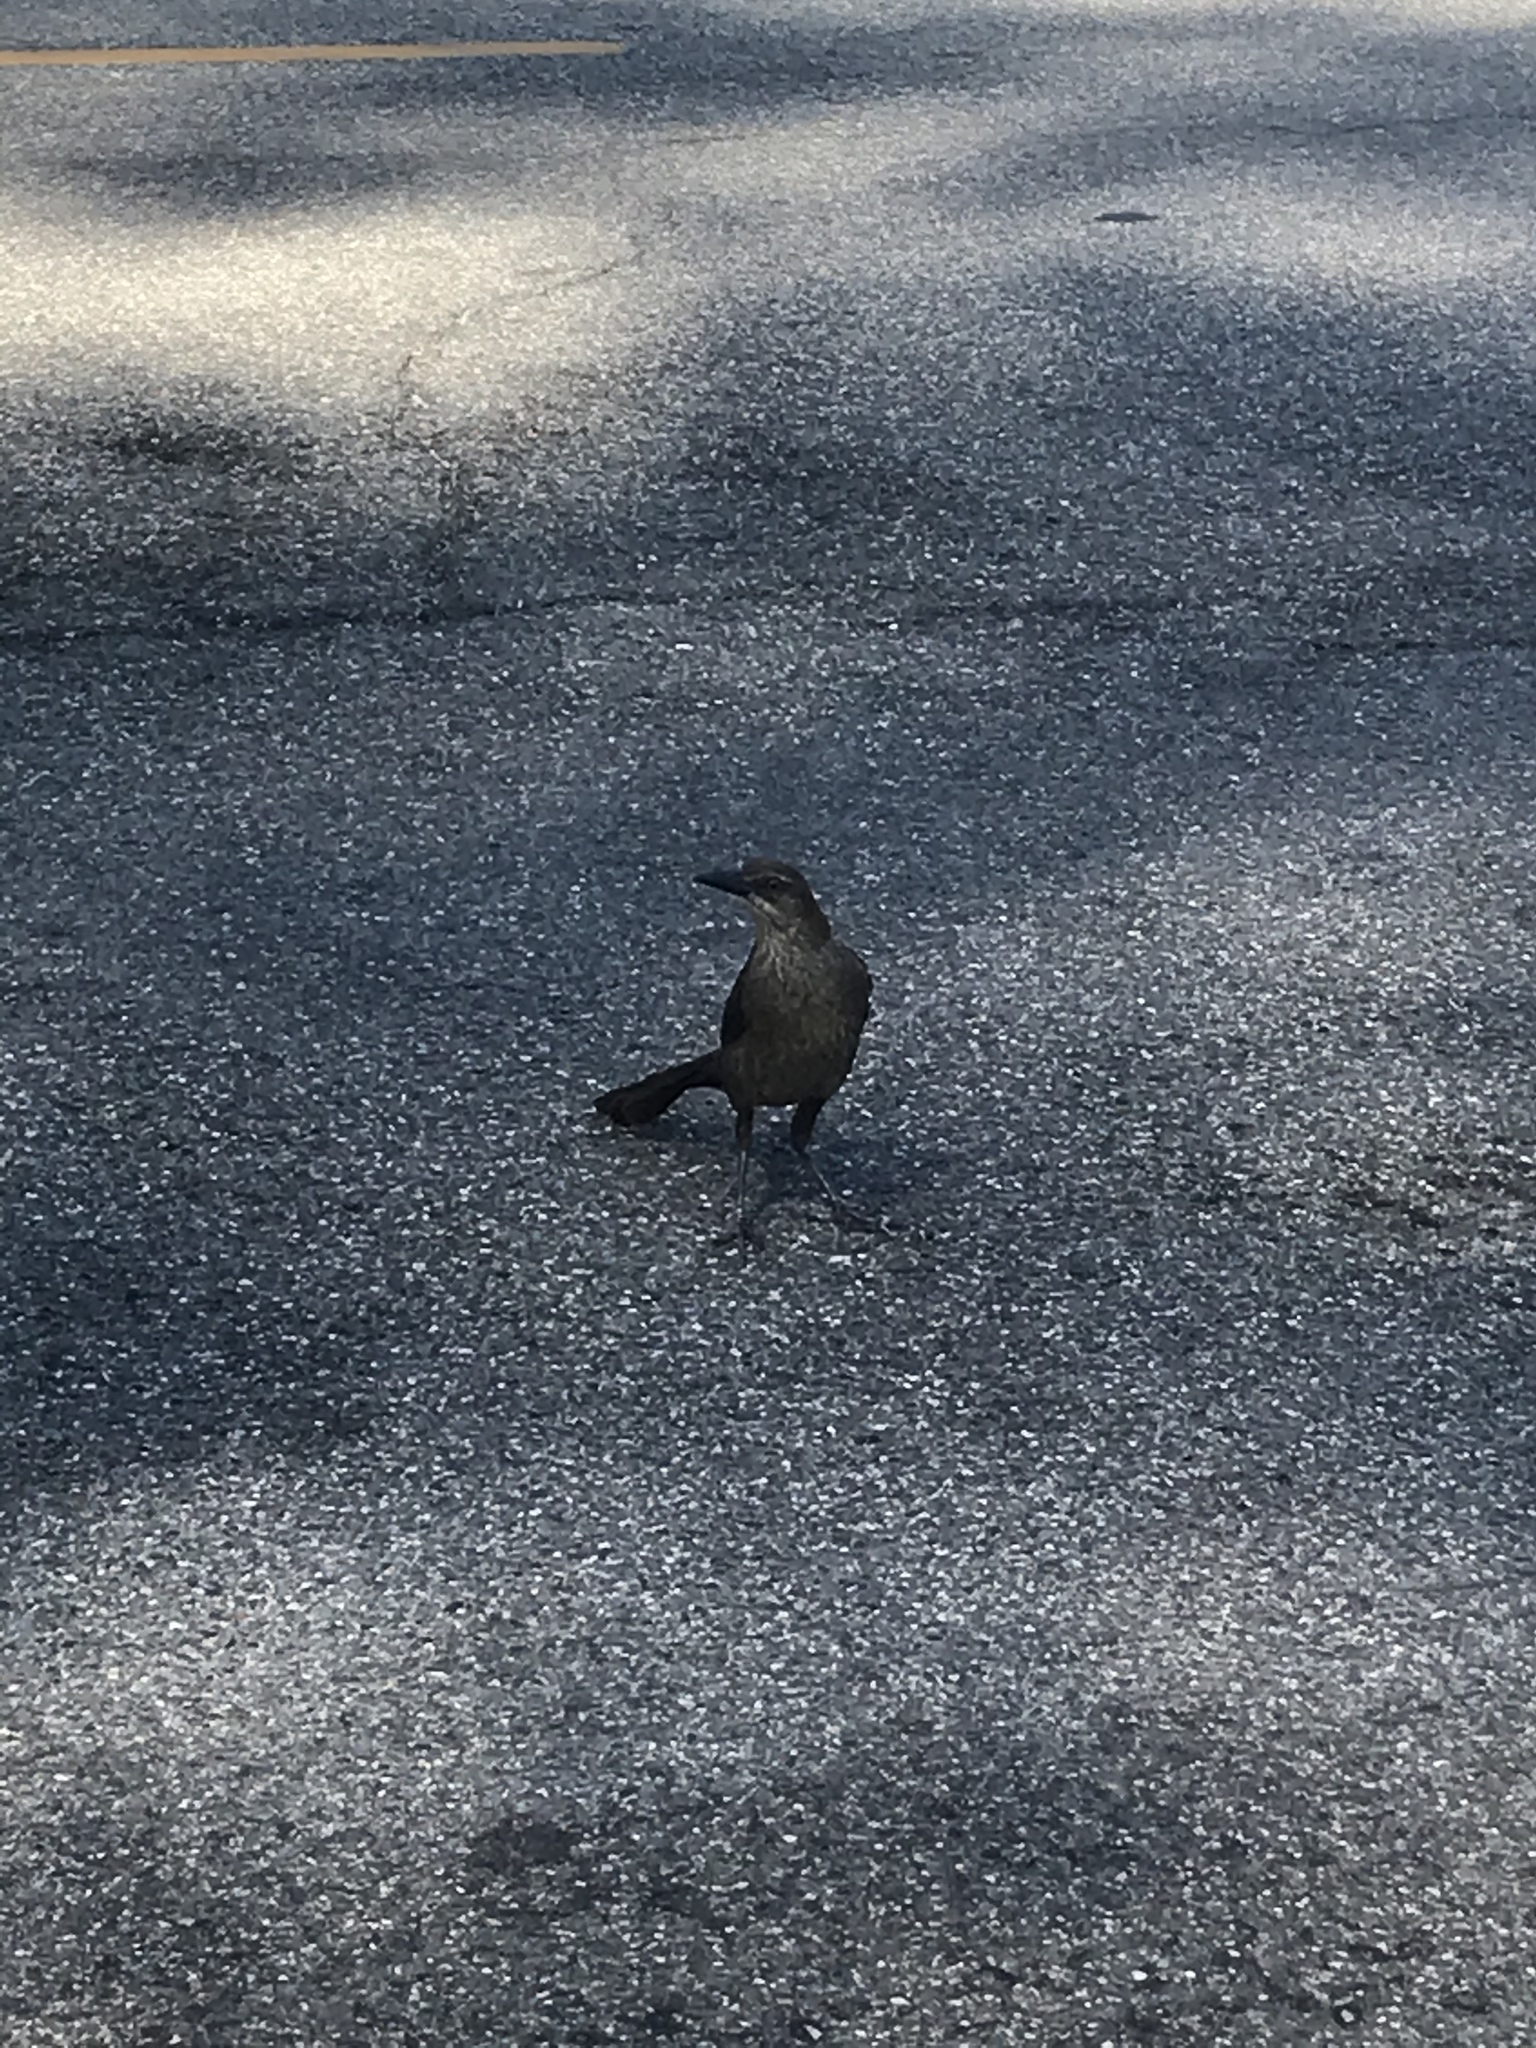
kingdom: Animalia
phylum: Chordata
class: Aves
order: Passeriformes
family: Icteridae
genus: Quiscalus
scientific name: Quiscalus mexicanus
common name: Great-tailed grackle
